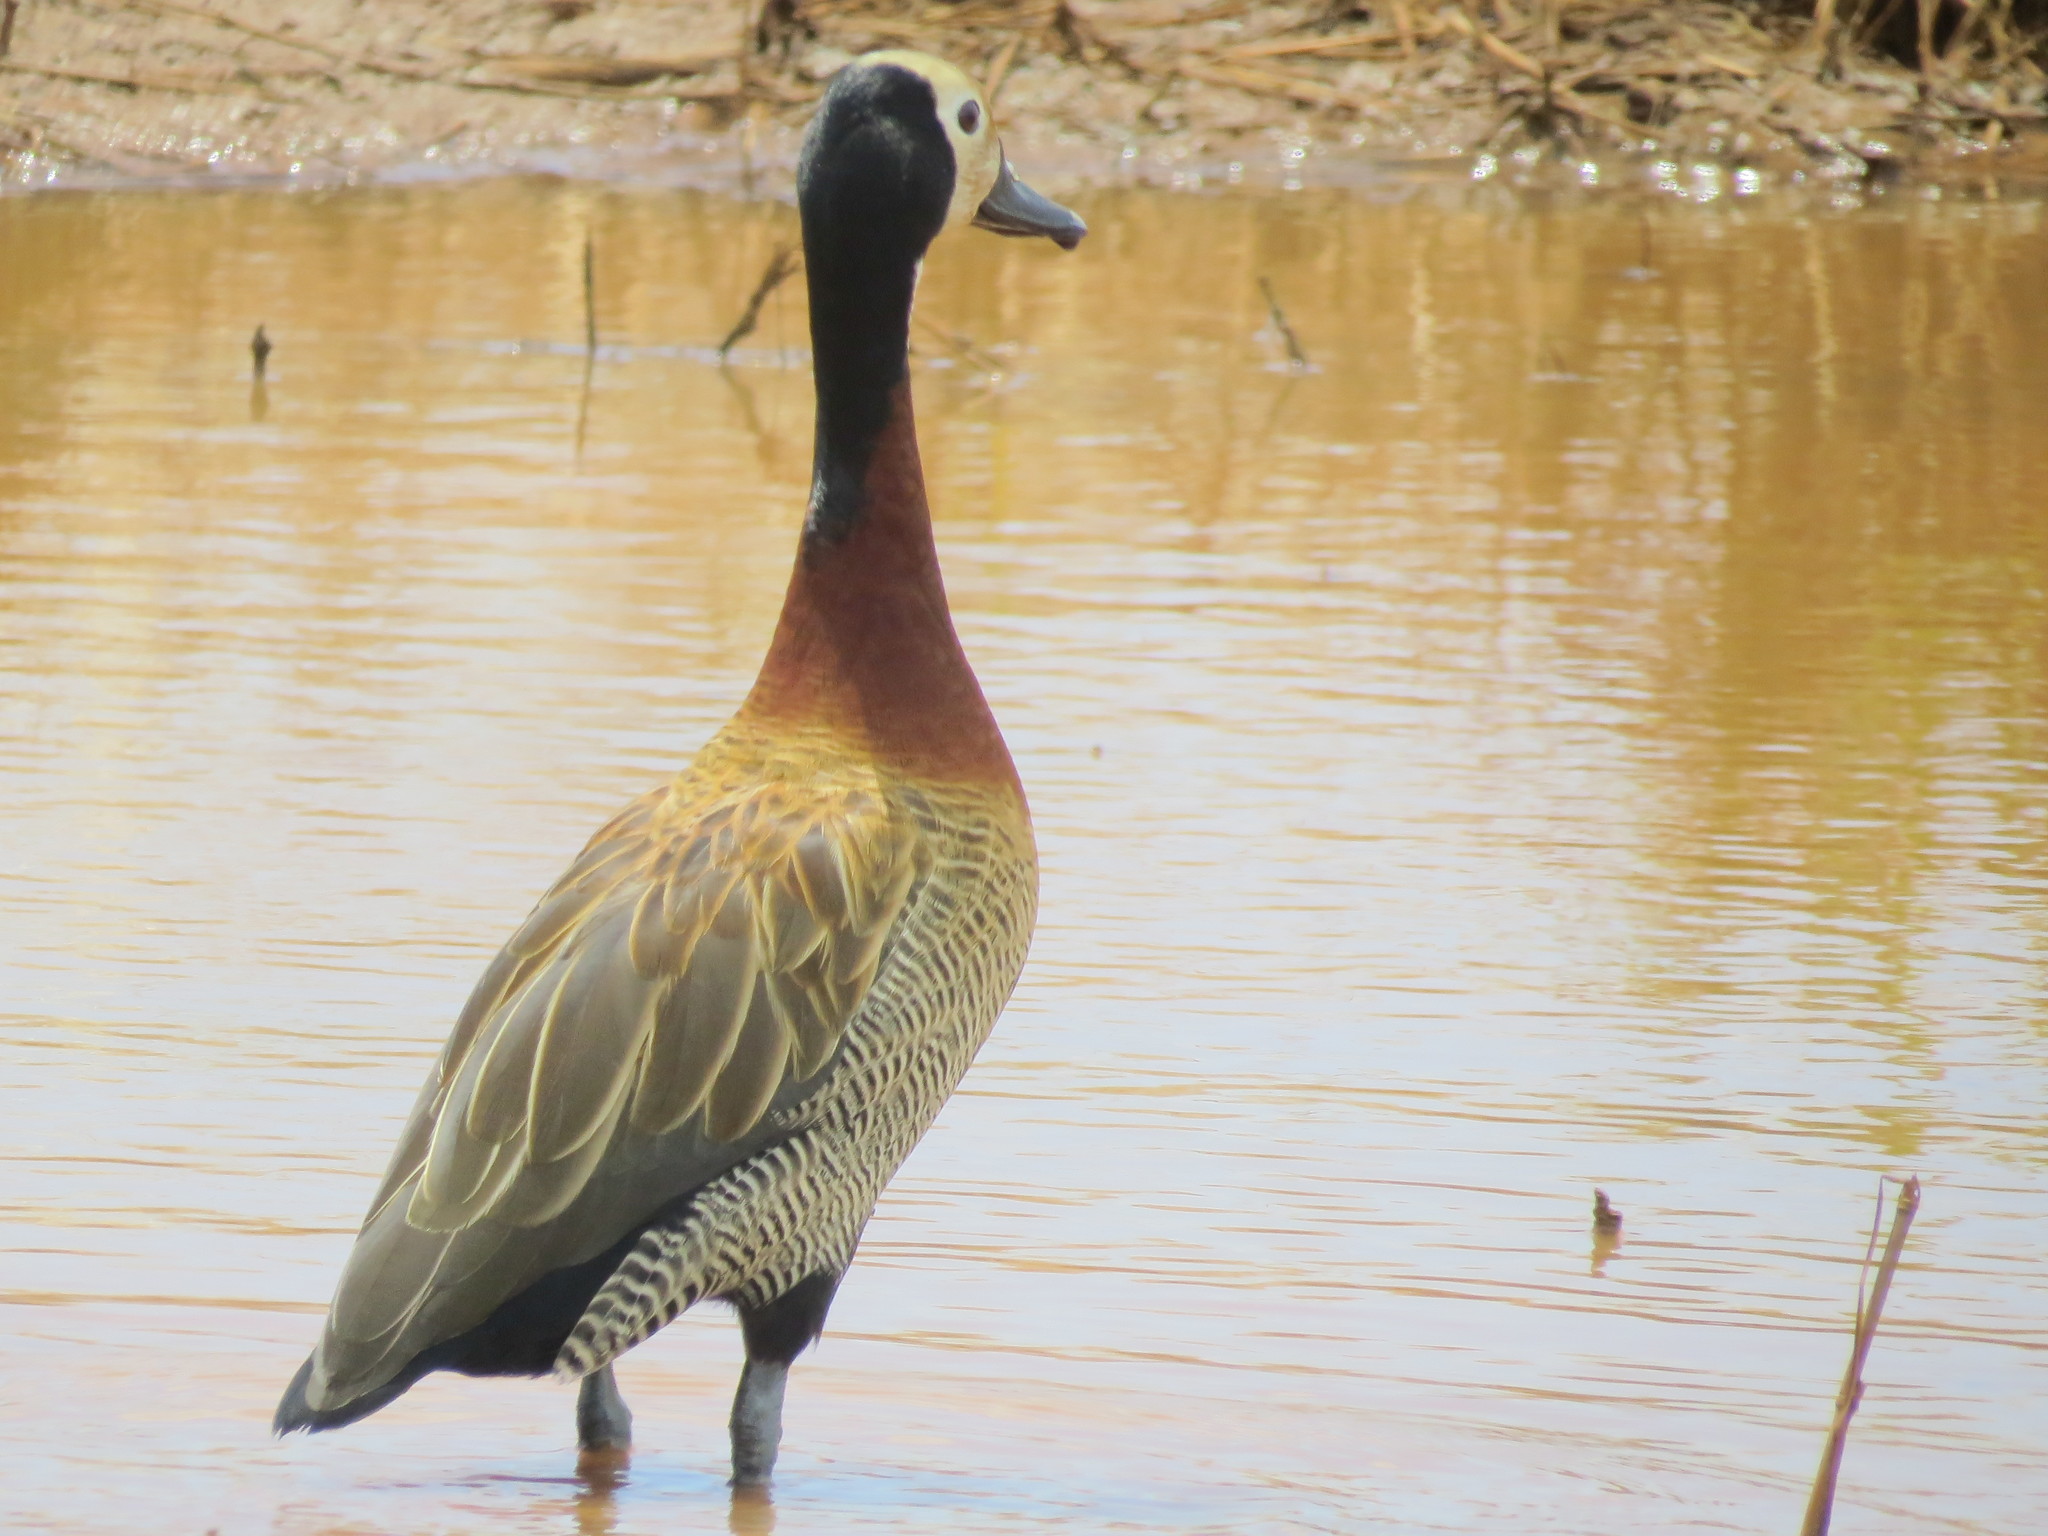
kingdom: Animalia
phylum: Chordata
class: Aves
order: Anseriformes
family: Anatidae
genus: Dendrocygna
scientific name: Dendrocygna viduata
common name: White-faced whistling duck
